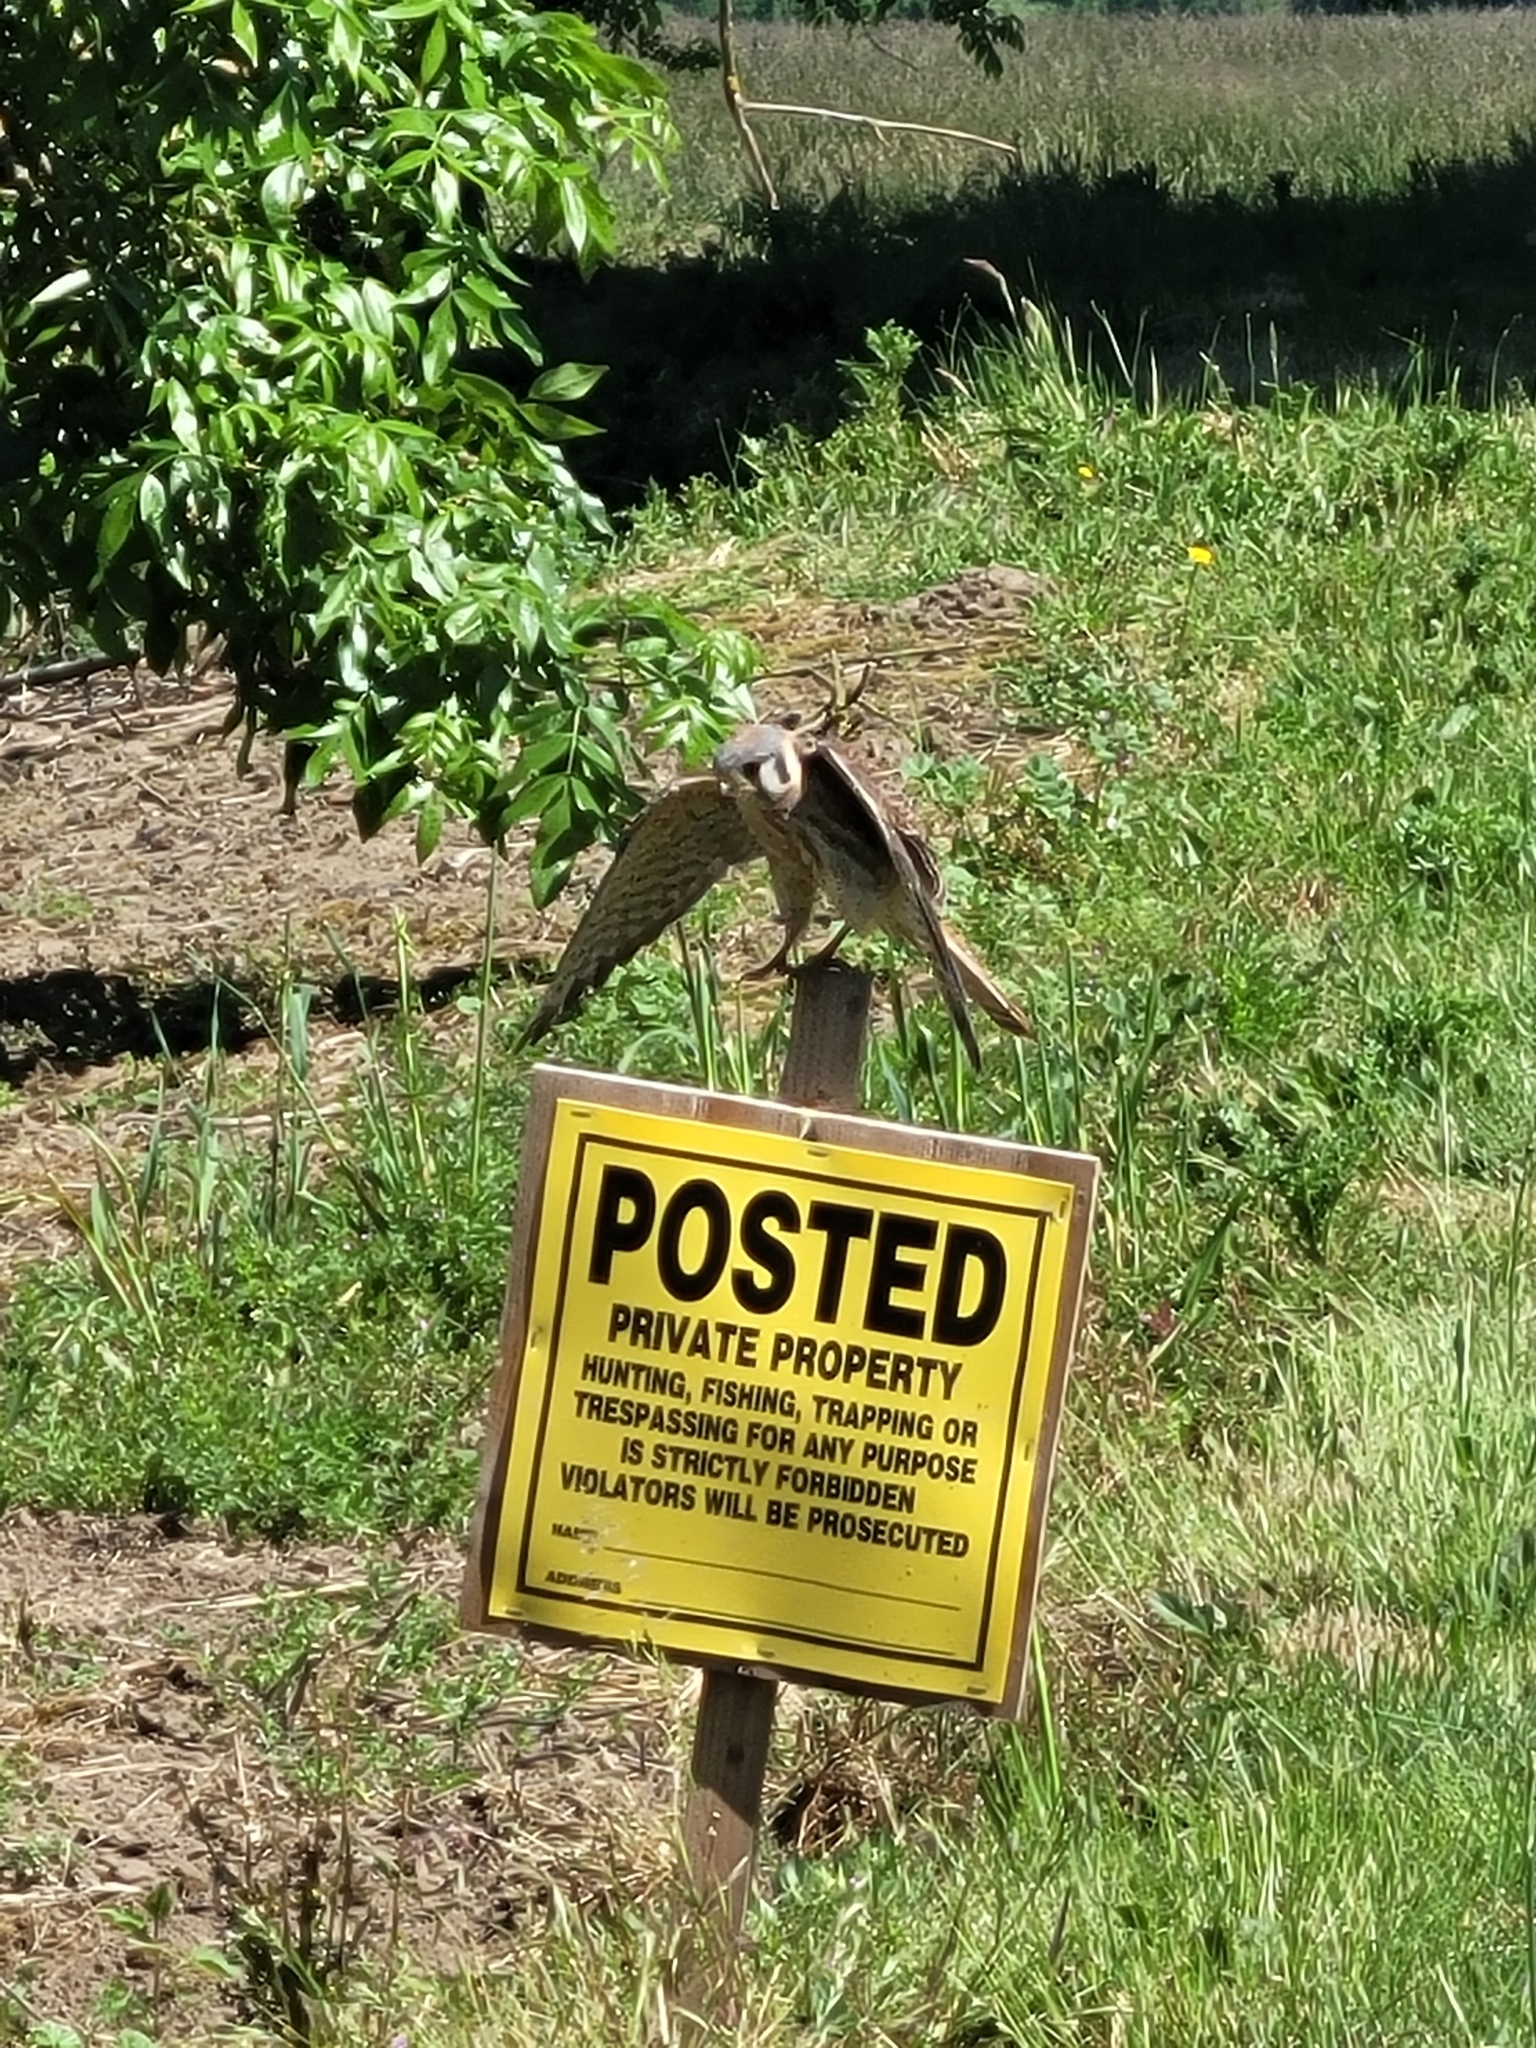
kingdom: Animalia
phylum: Chordata
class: Aves
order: Falconiformes
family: Falconidae
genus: Falco
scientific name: Falco sparverius
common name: American kestrel
